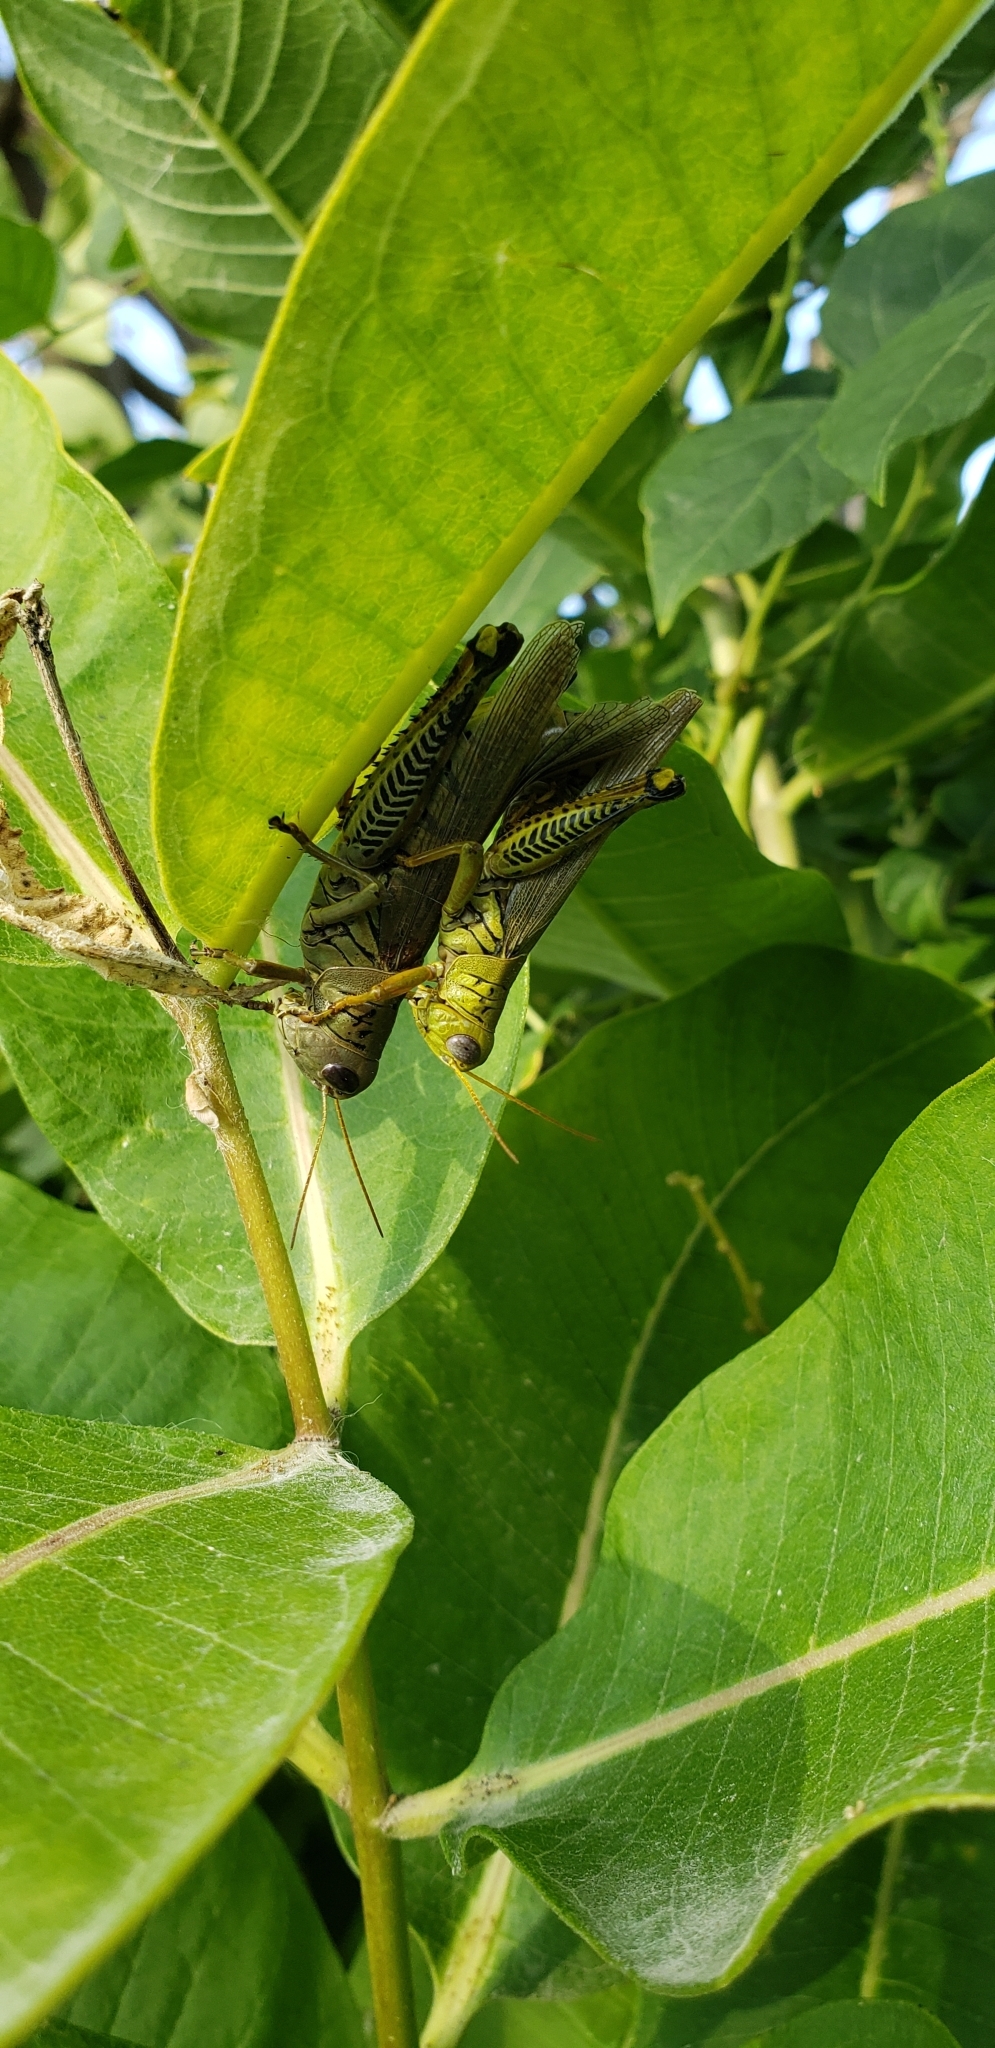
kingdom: Animalia
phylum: Arthropoda
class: Insecta
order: Orthoptera
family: Acrididae
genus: Melanoplus
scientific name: Melanoplus differentialis
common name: Differential grasshopper
